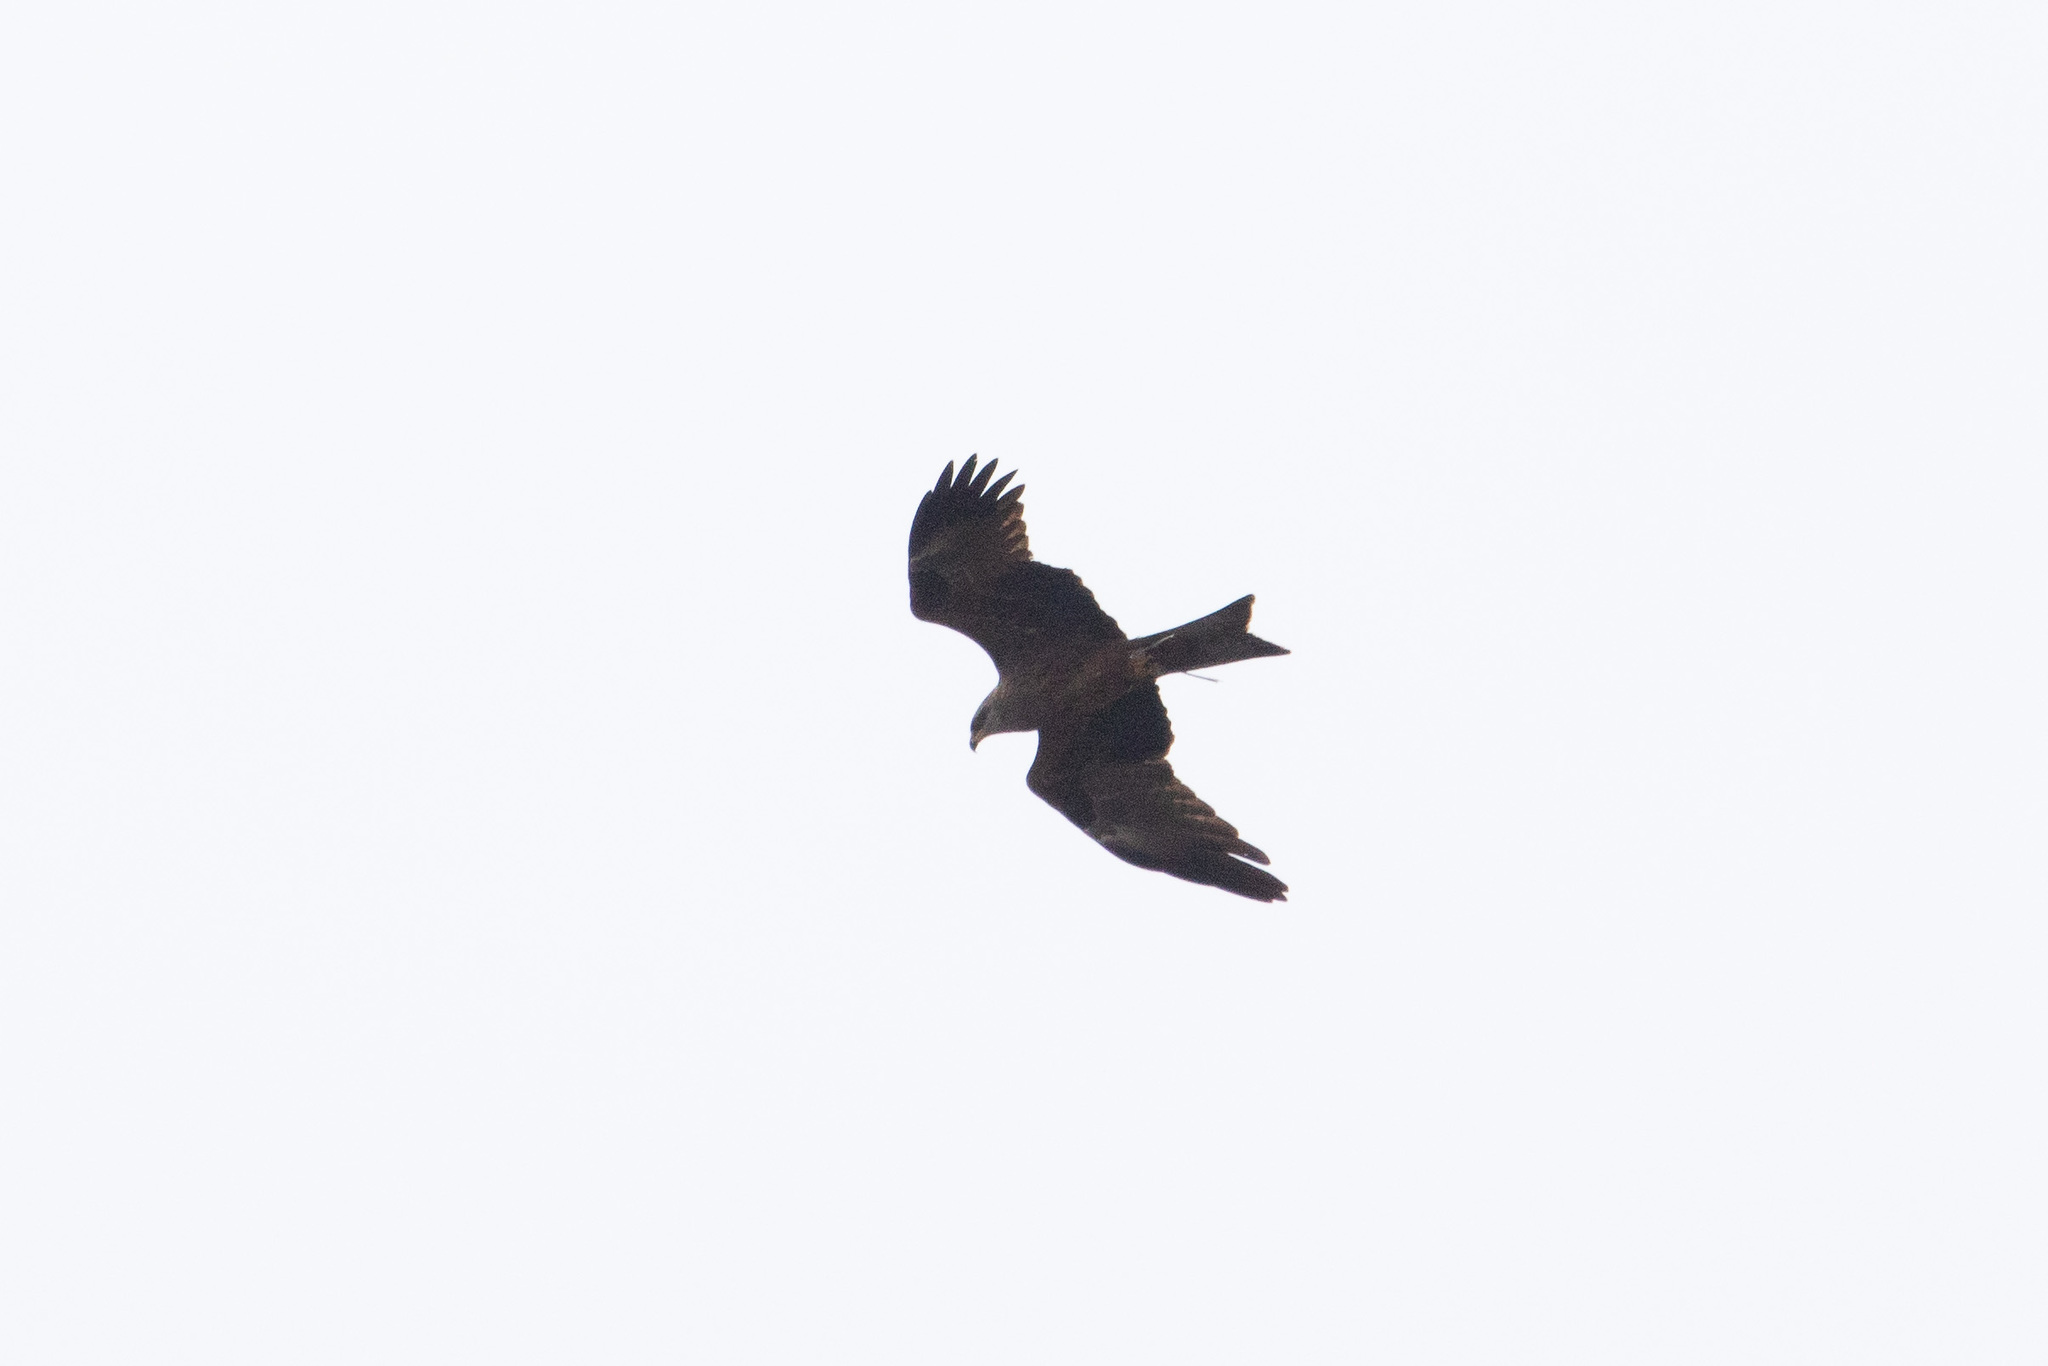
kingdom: Animalia
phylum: Chordata
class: Aves
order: Accipitriformes
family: Accipitridae
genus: Milvus
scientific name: Milvus migrans
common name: Black kite
